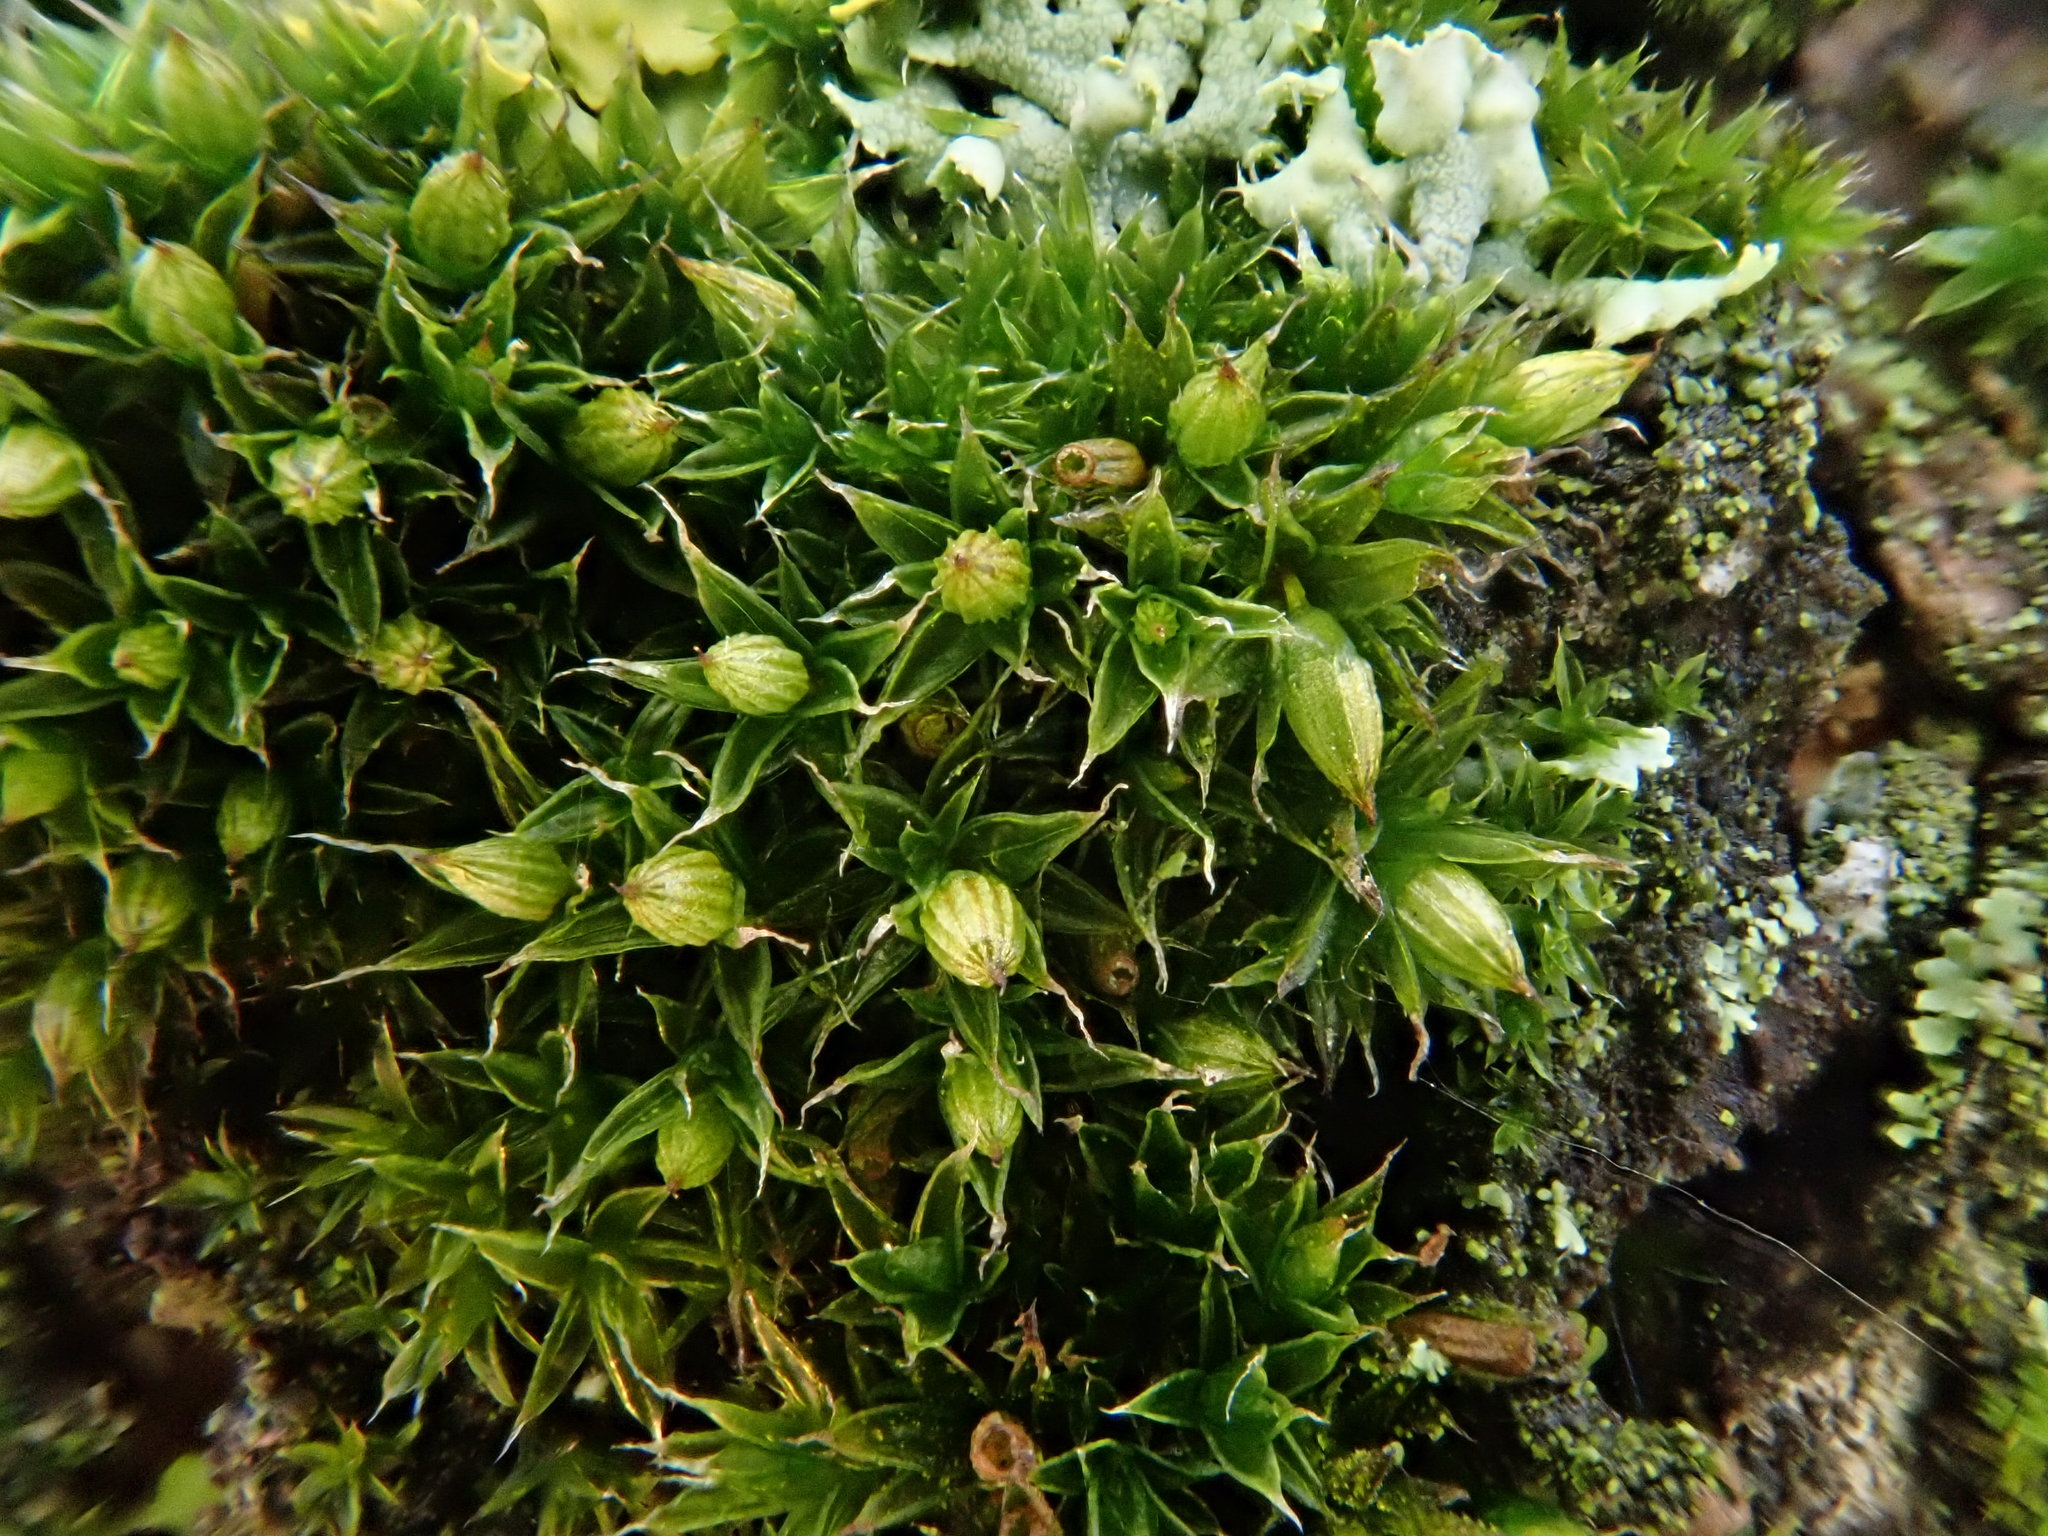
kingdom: Plantae
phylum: Bryophyta
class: Bryopsida
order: Orthotrichales
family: Orthotrichaceae
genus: Orthotrichum
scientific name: Orthotrichum diaphanum
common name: White-tipped bristle-moss
